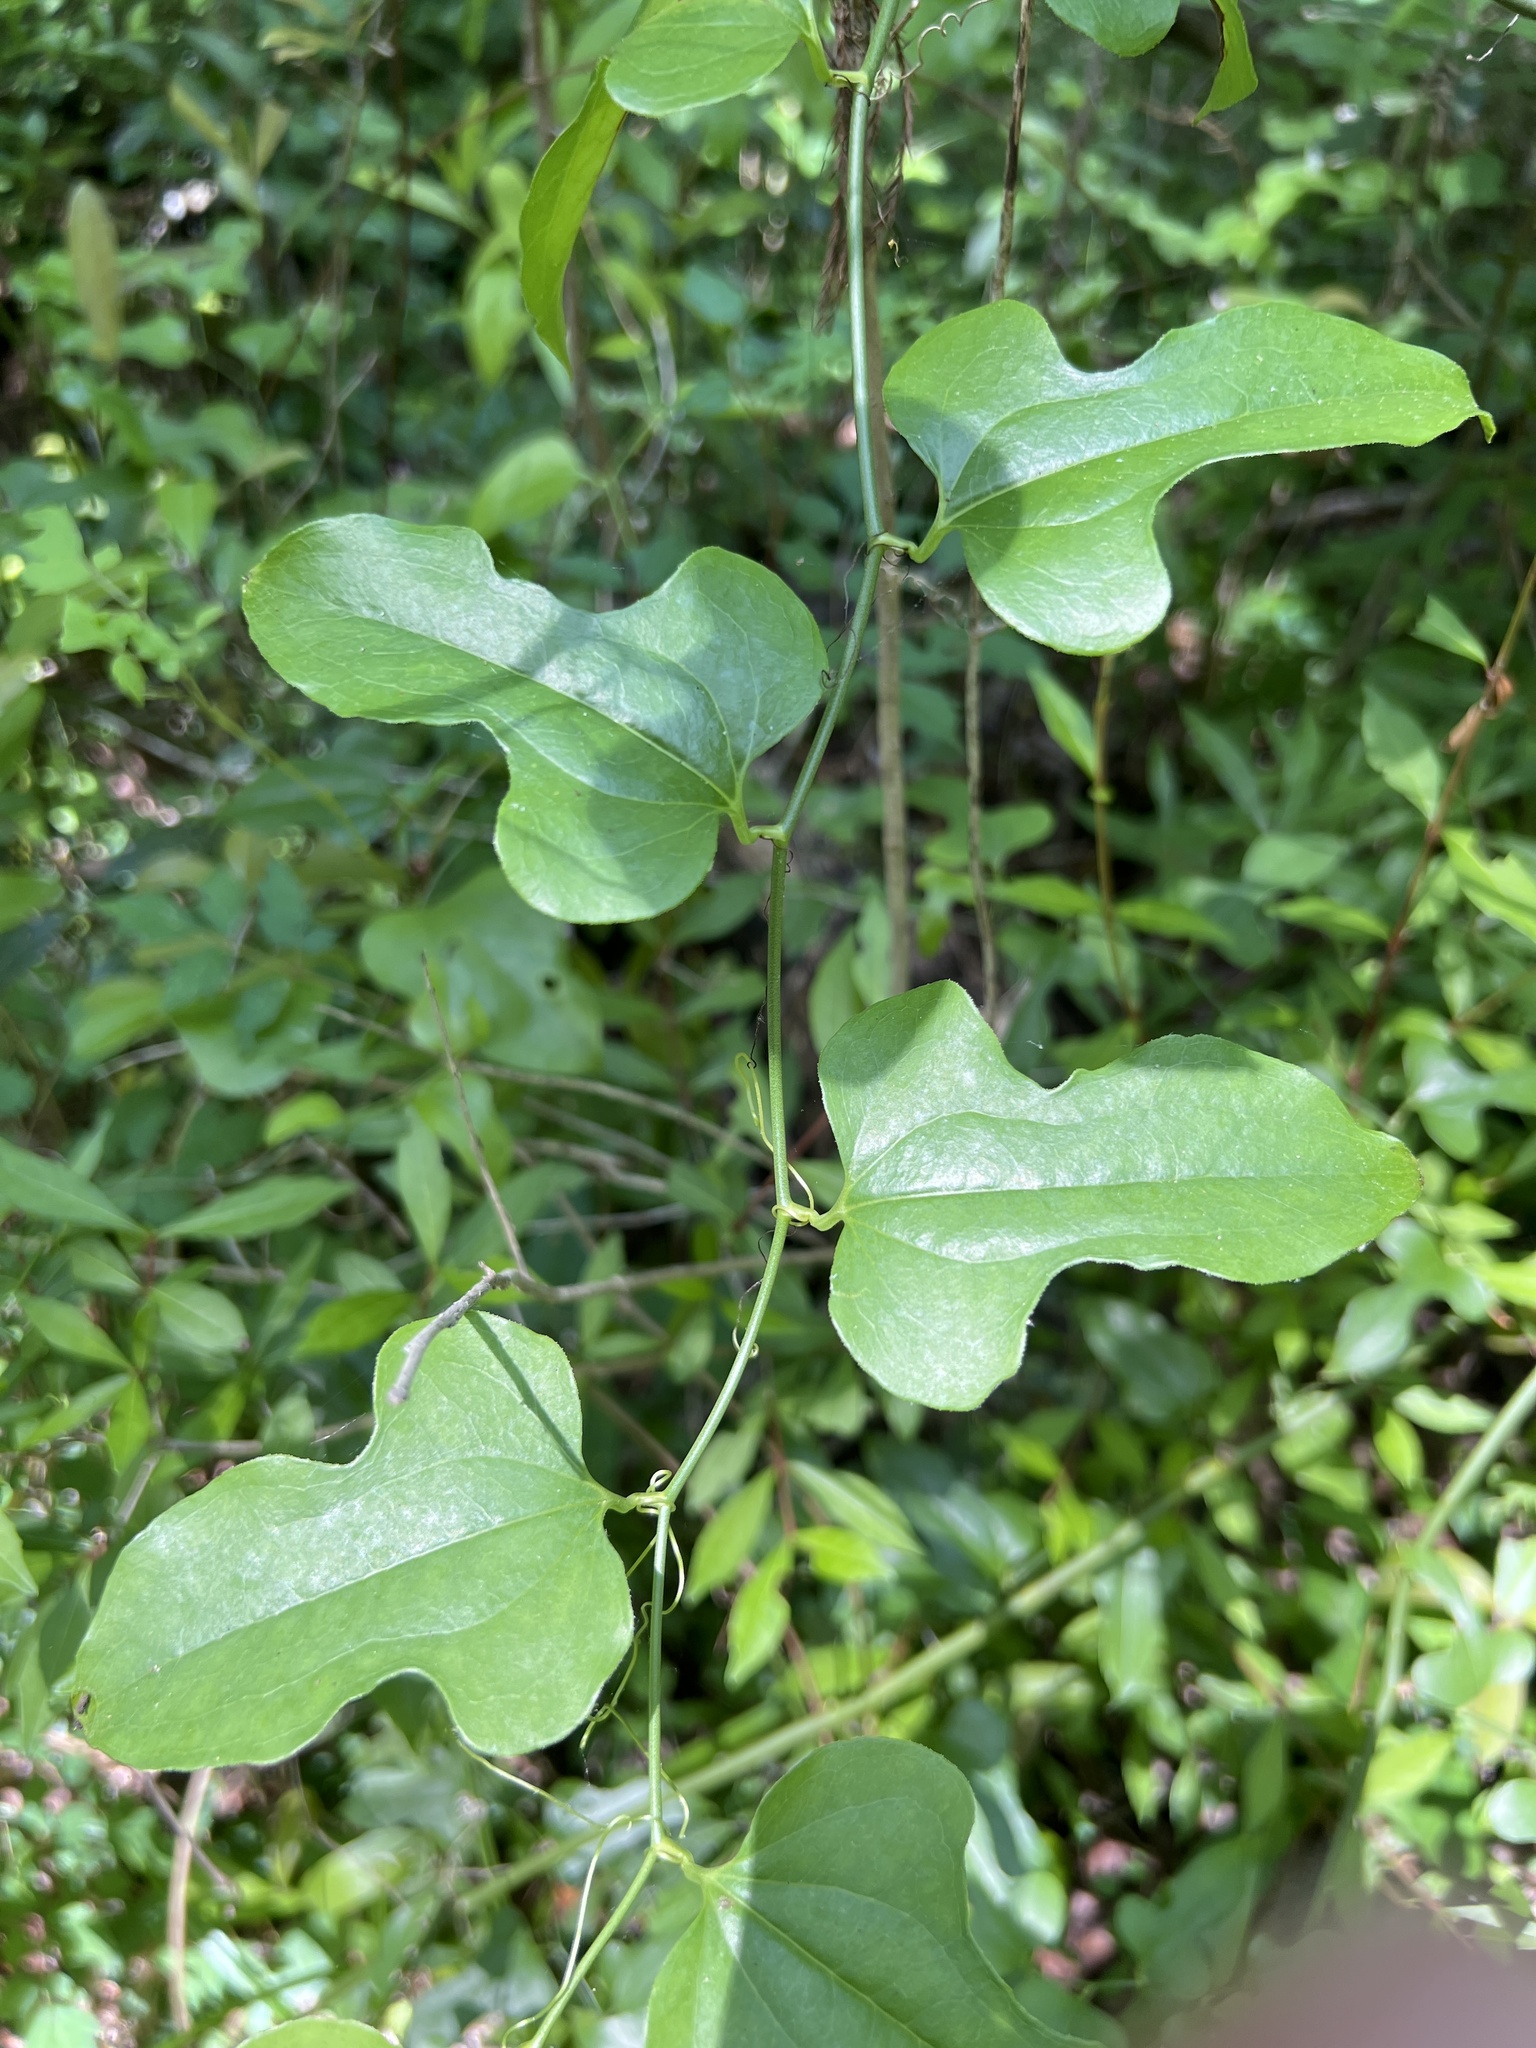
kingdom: Plantae
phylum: Tracheophyta
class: Liliopsida
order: Liliales
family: Smilacaceae
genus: Smilax
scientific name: Smilax tamnoides
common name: Hellfetter
